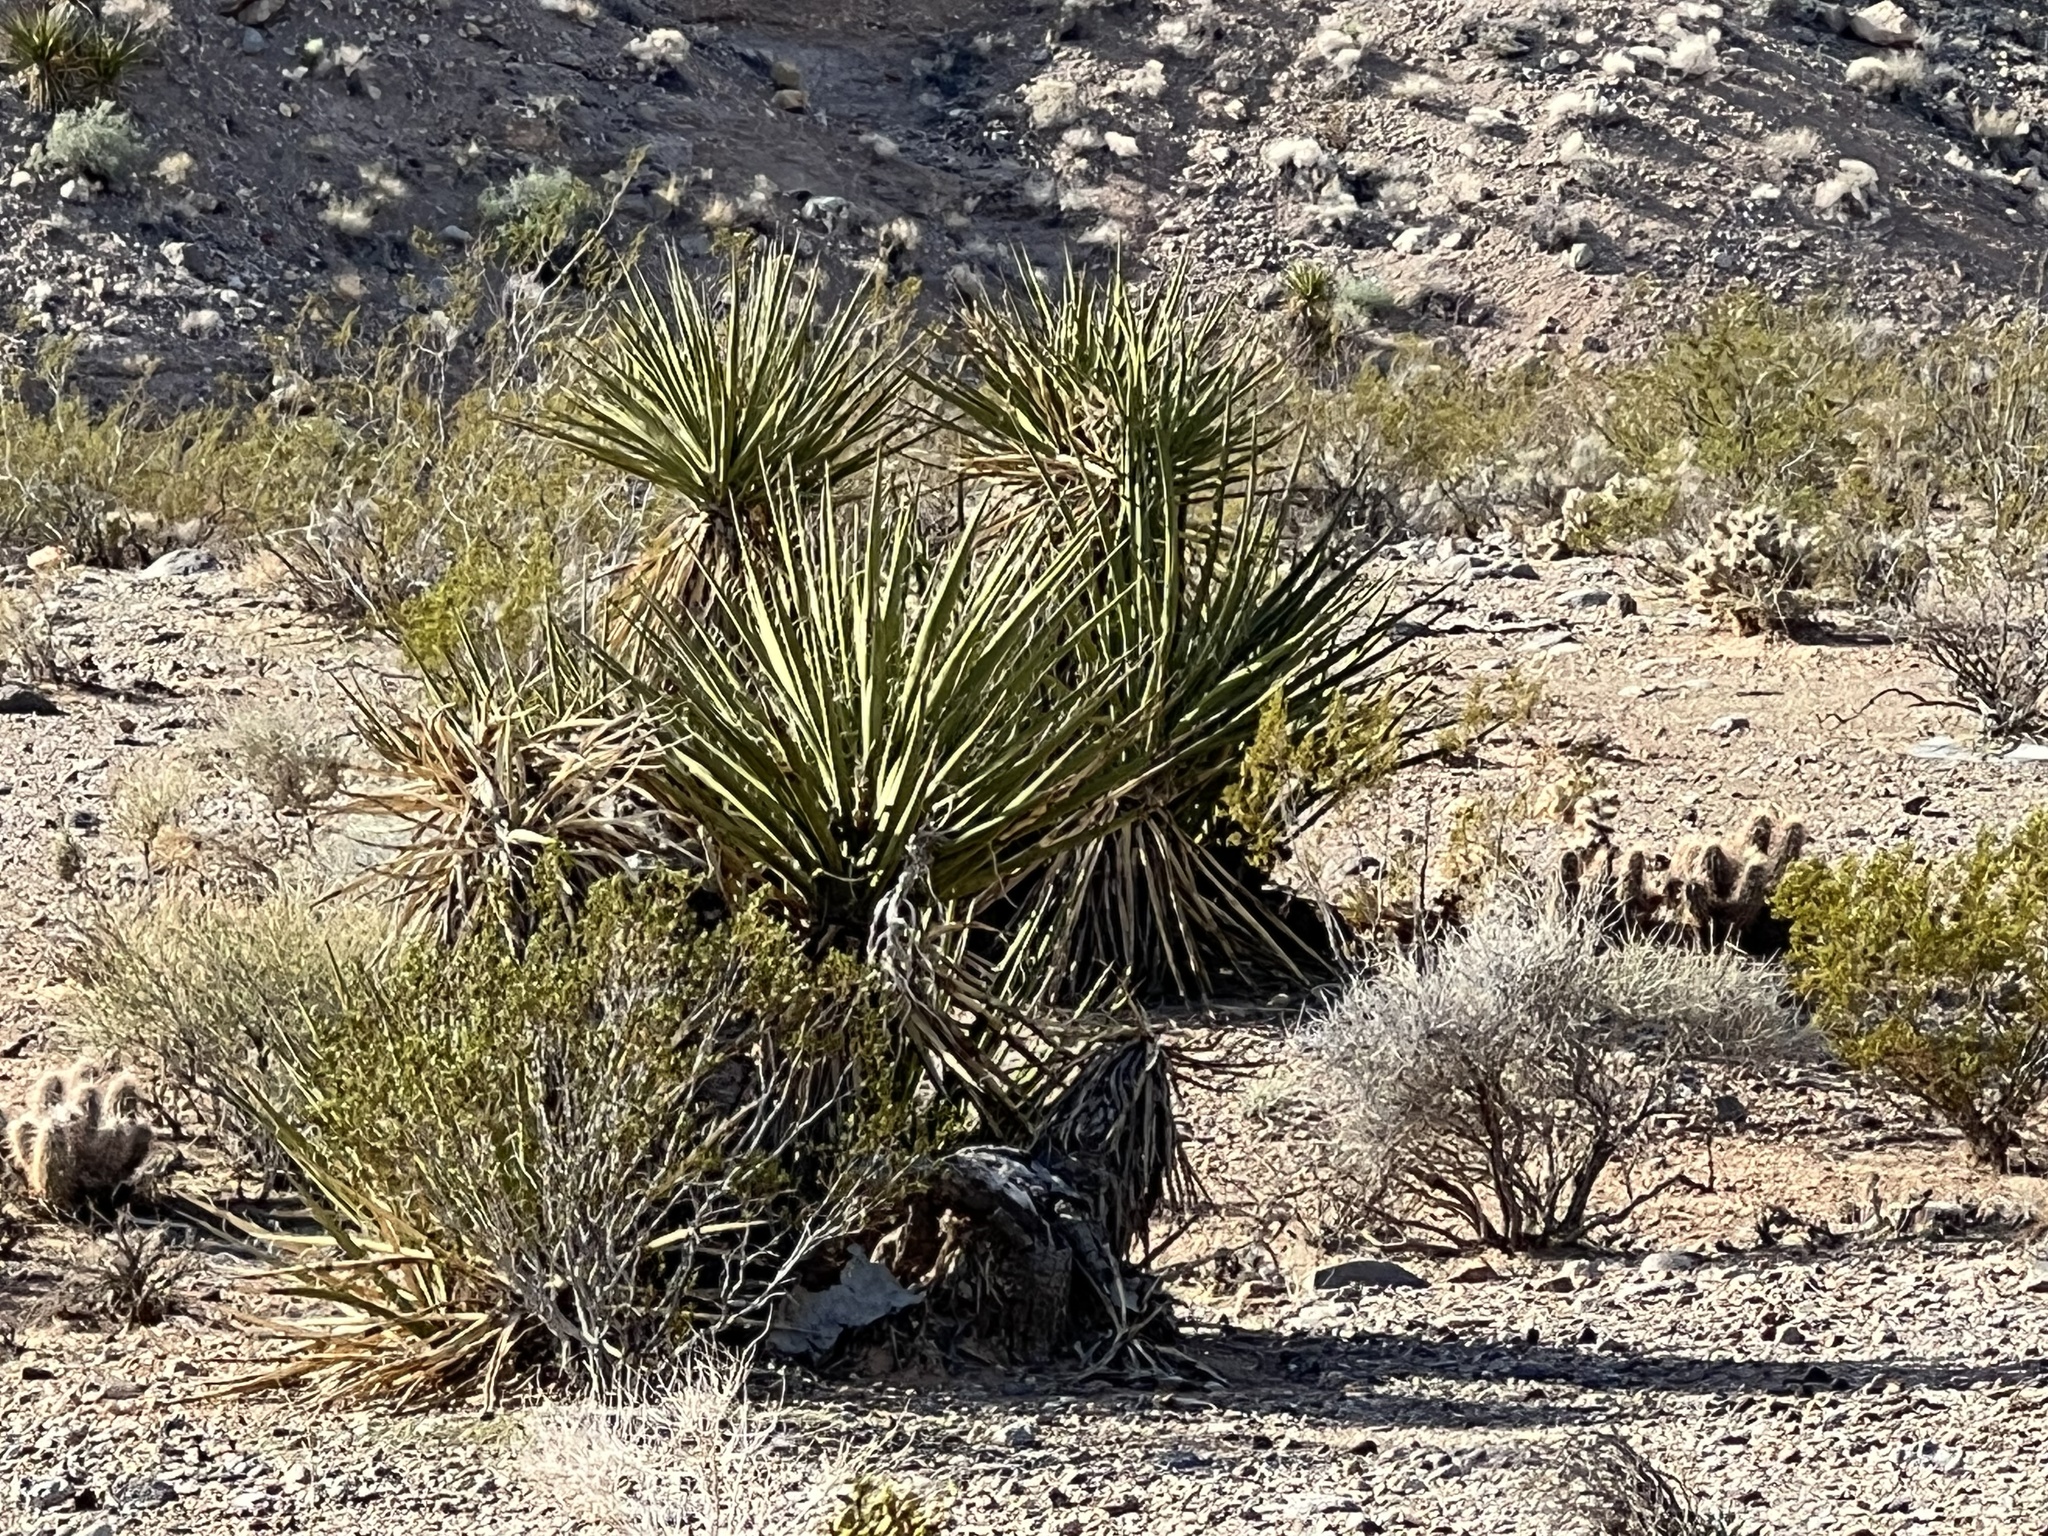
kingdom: Plantae
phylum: Tracheophyta
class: Liliopsida
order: Asparagales
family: Asparagaceae
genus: Yucca
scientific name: Yucca schidigera
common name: Mojave yucca
